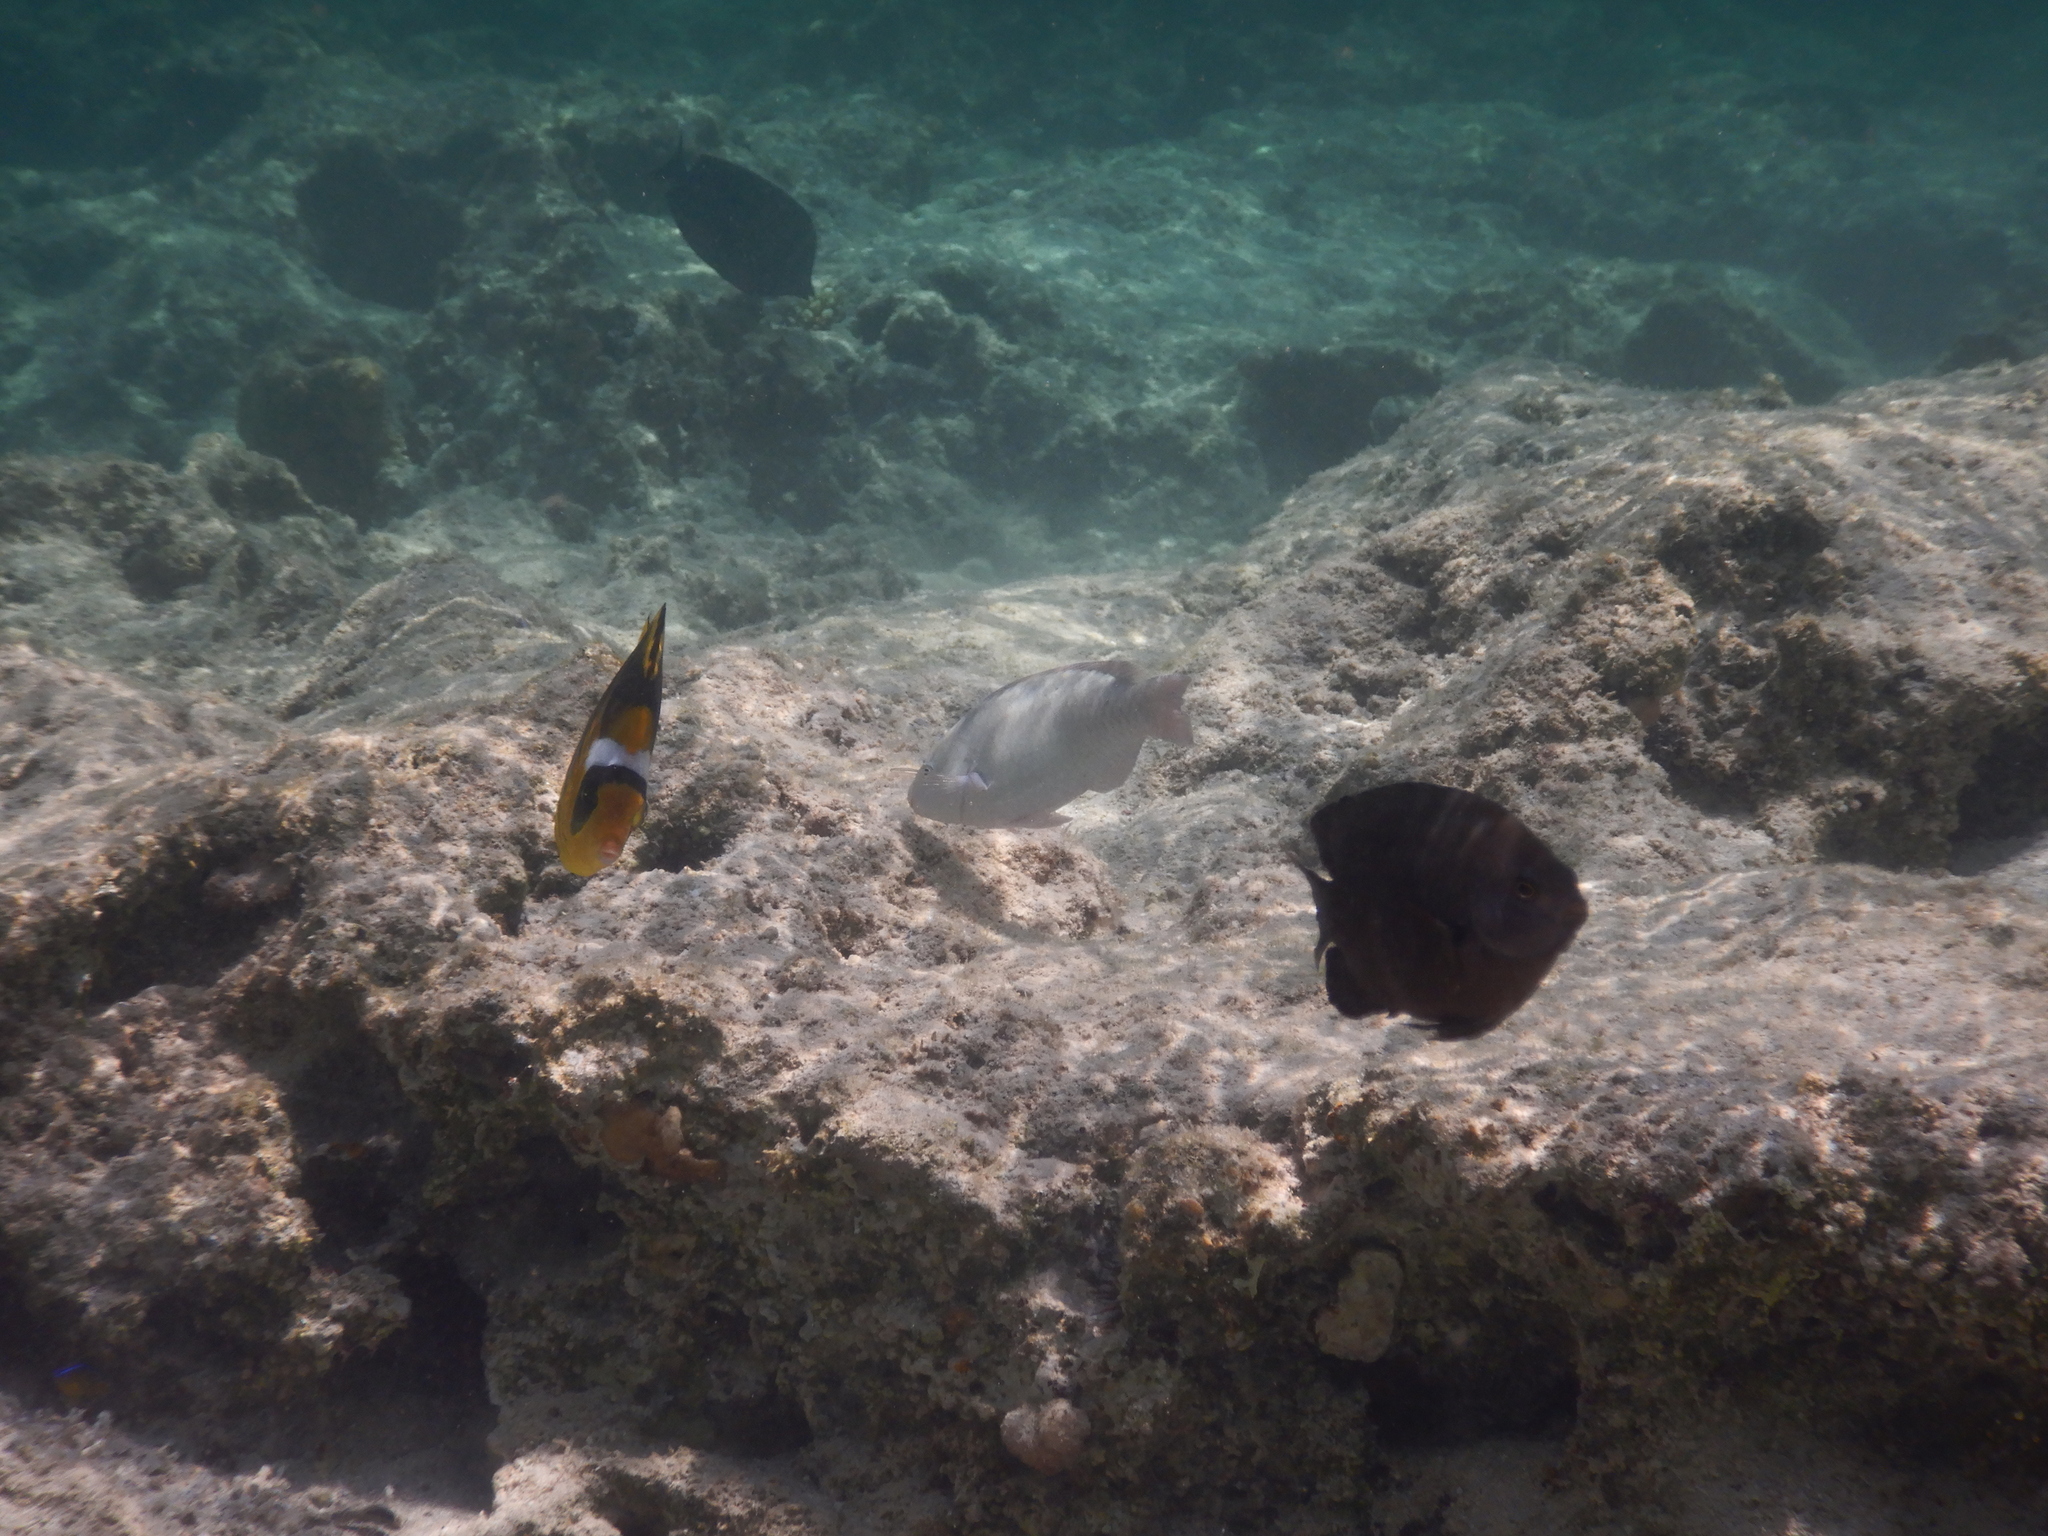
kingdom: Animalia
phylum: Chordata
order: Perciformes
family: Chaetodontidae
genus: Chaetodon
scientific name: Chaetodon fasciatus
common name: Diagonal butterflyfish
